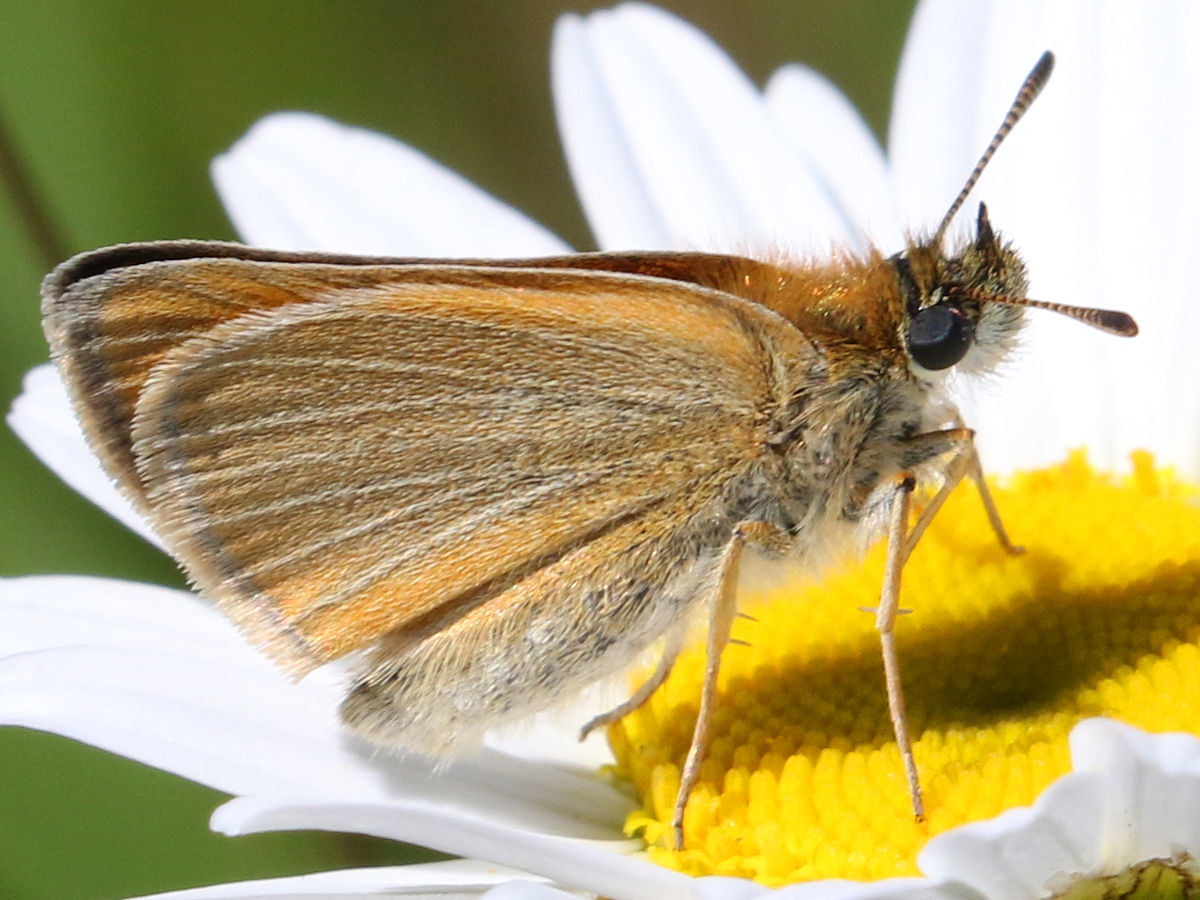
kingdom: Animalia
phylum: Arthropoda
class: Insecta
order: Lepidoptera
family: Hesperiidae
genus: Thymelicus
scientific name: Thymelicus lineola
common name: Essex skipper
